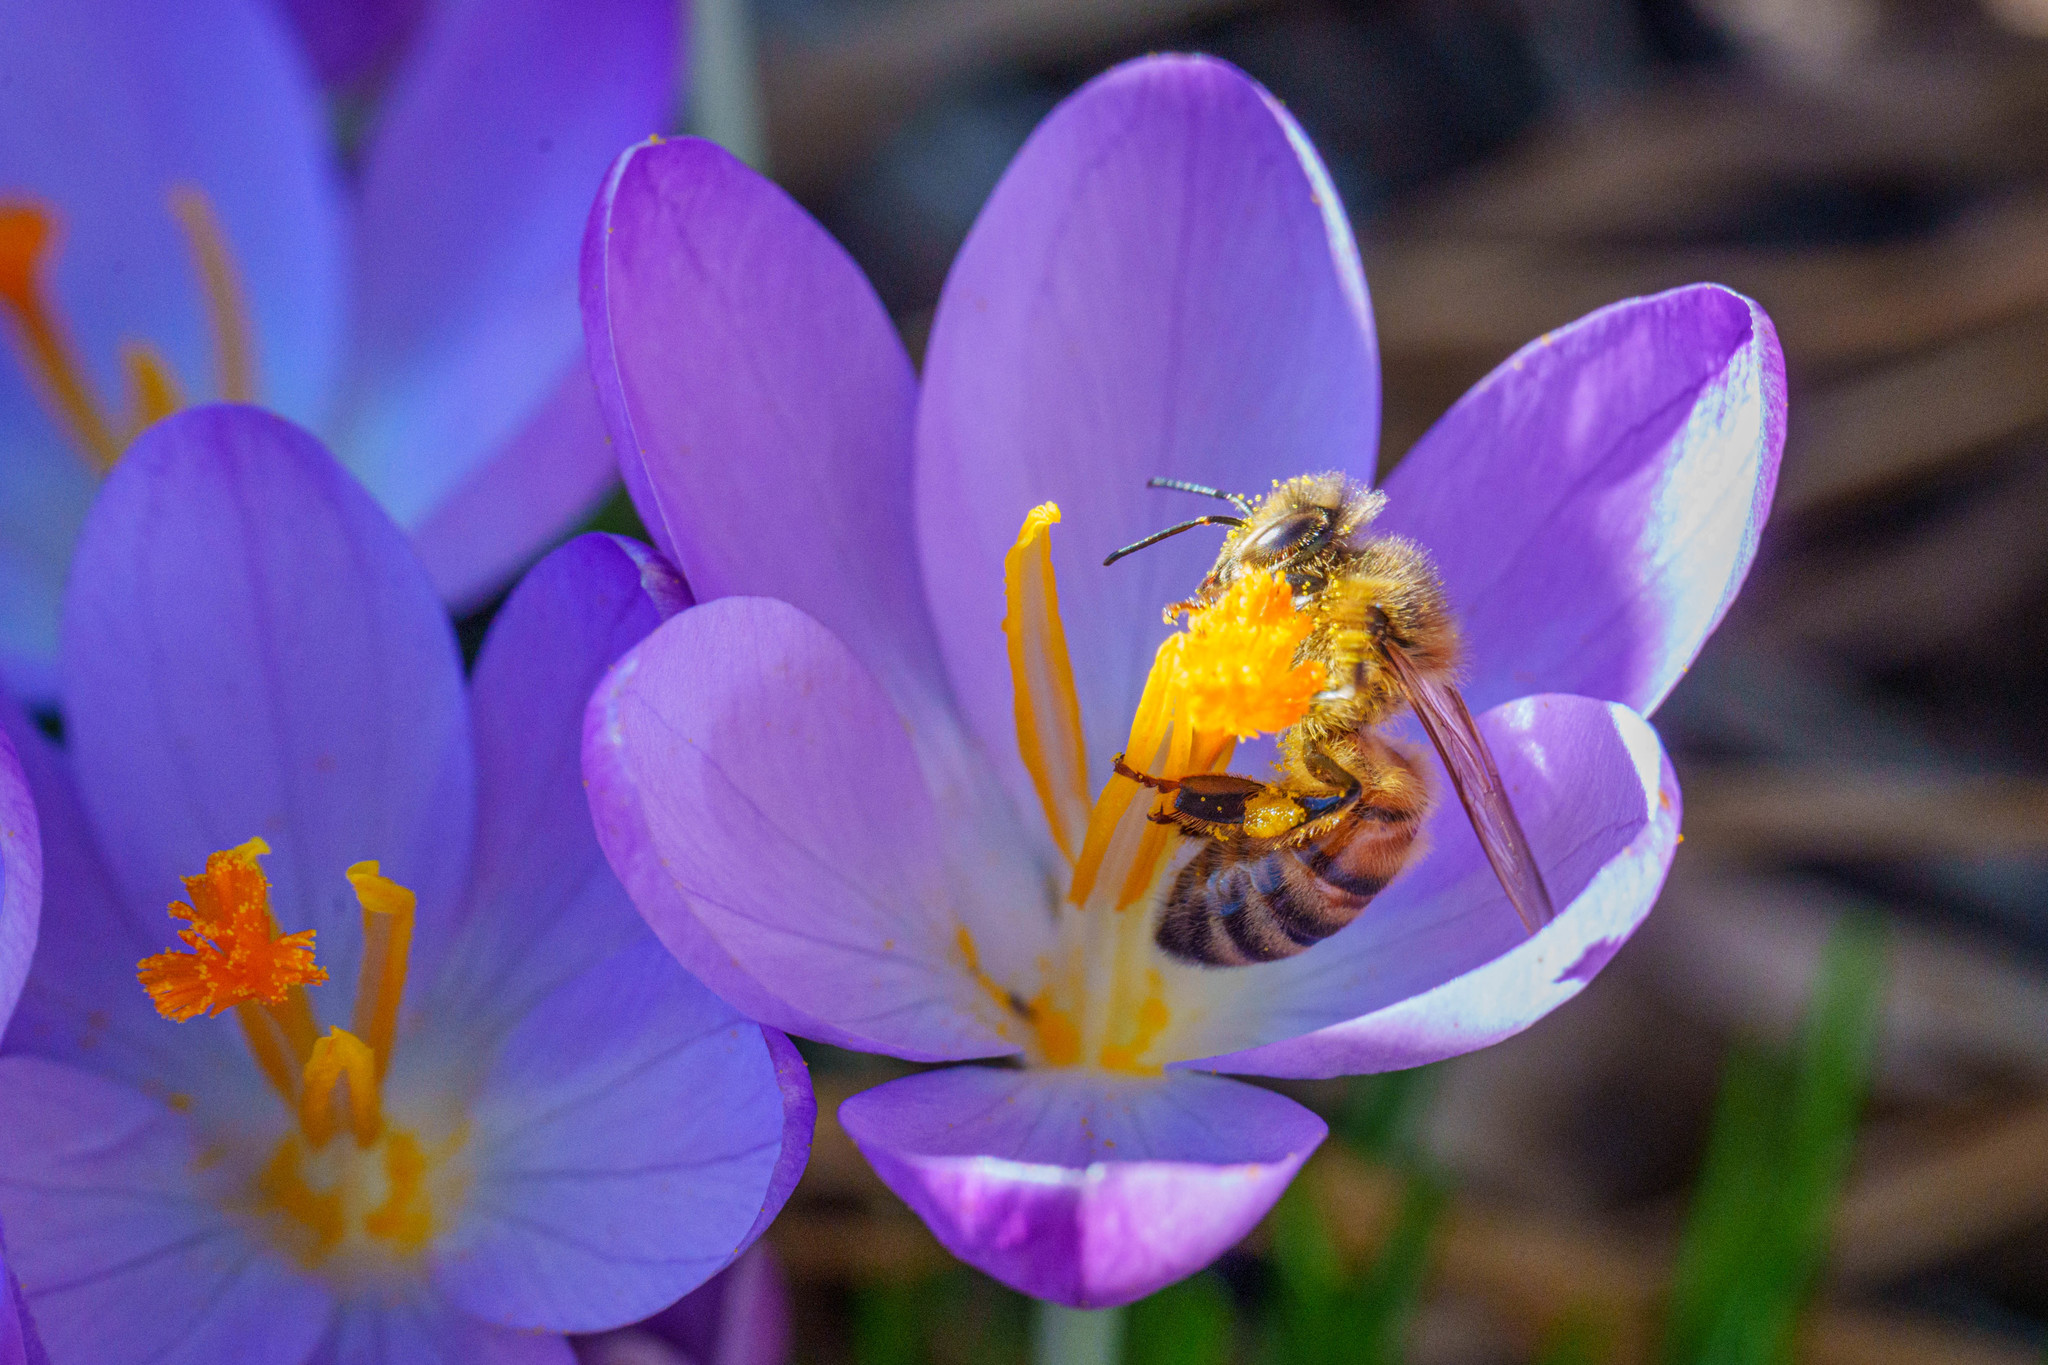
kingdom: Animalia
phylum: Arthropoda
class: Insecta
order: Hymenoptera
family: Apidae
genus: Apis
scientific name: Apis mellifera
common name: Honey bee
